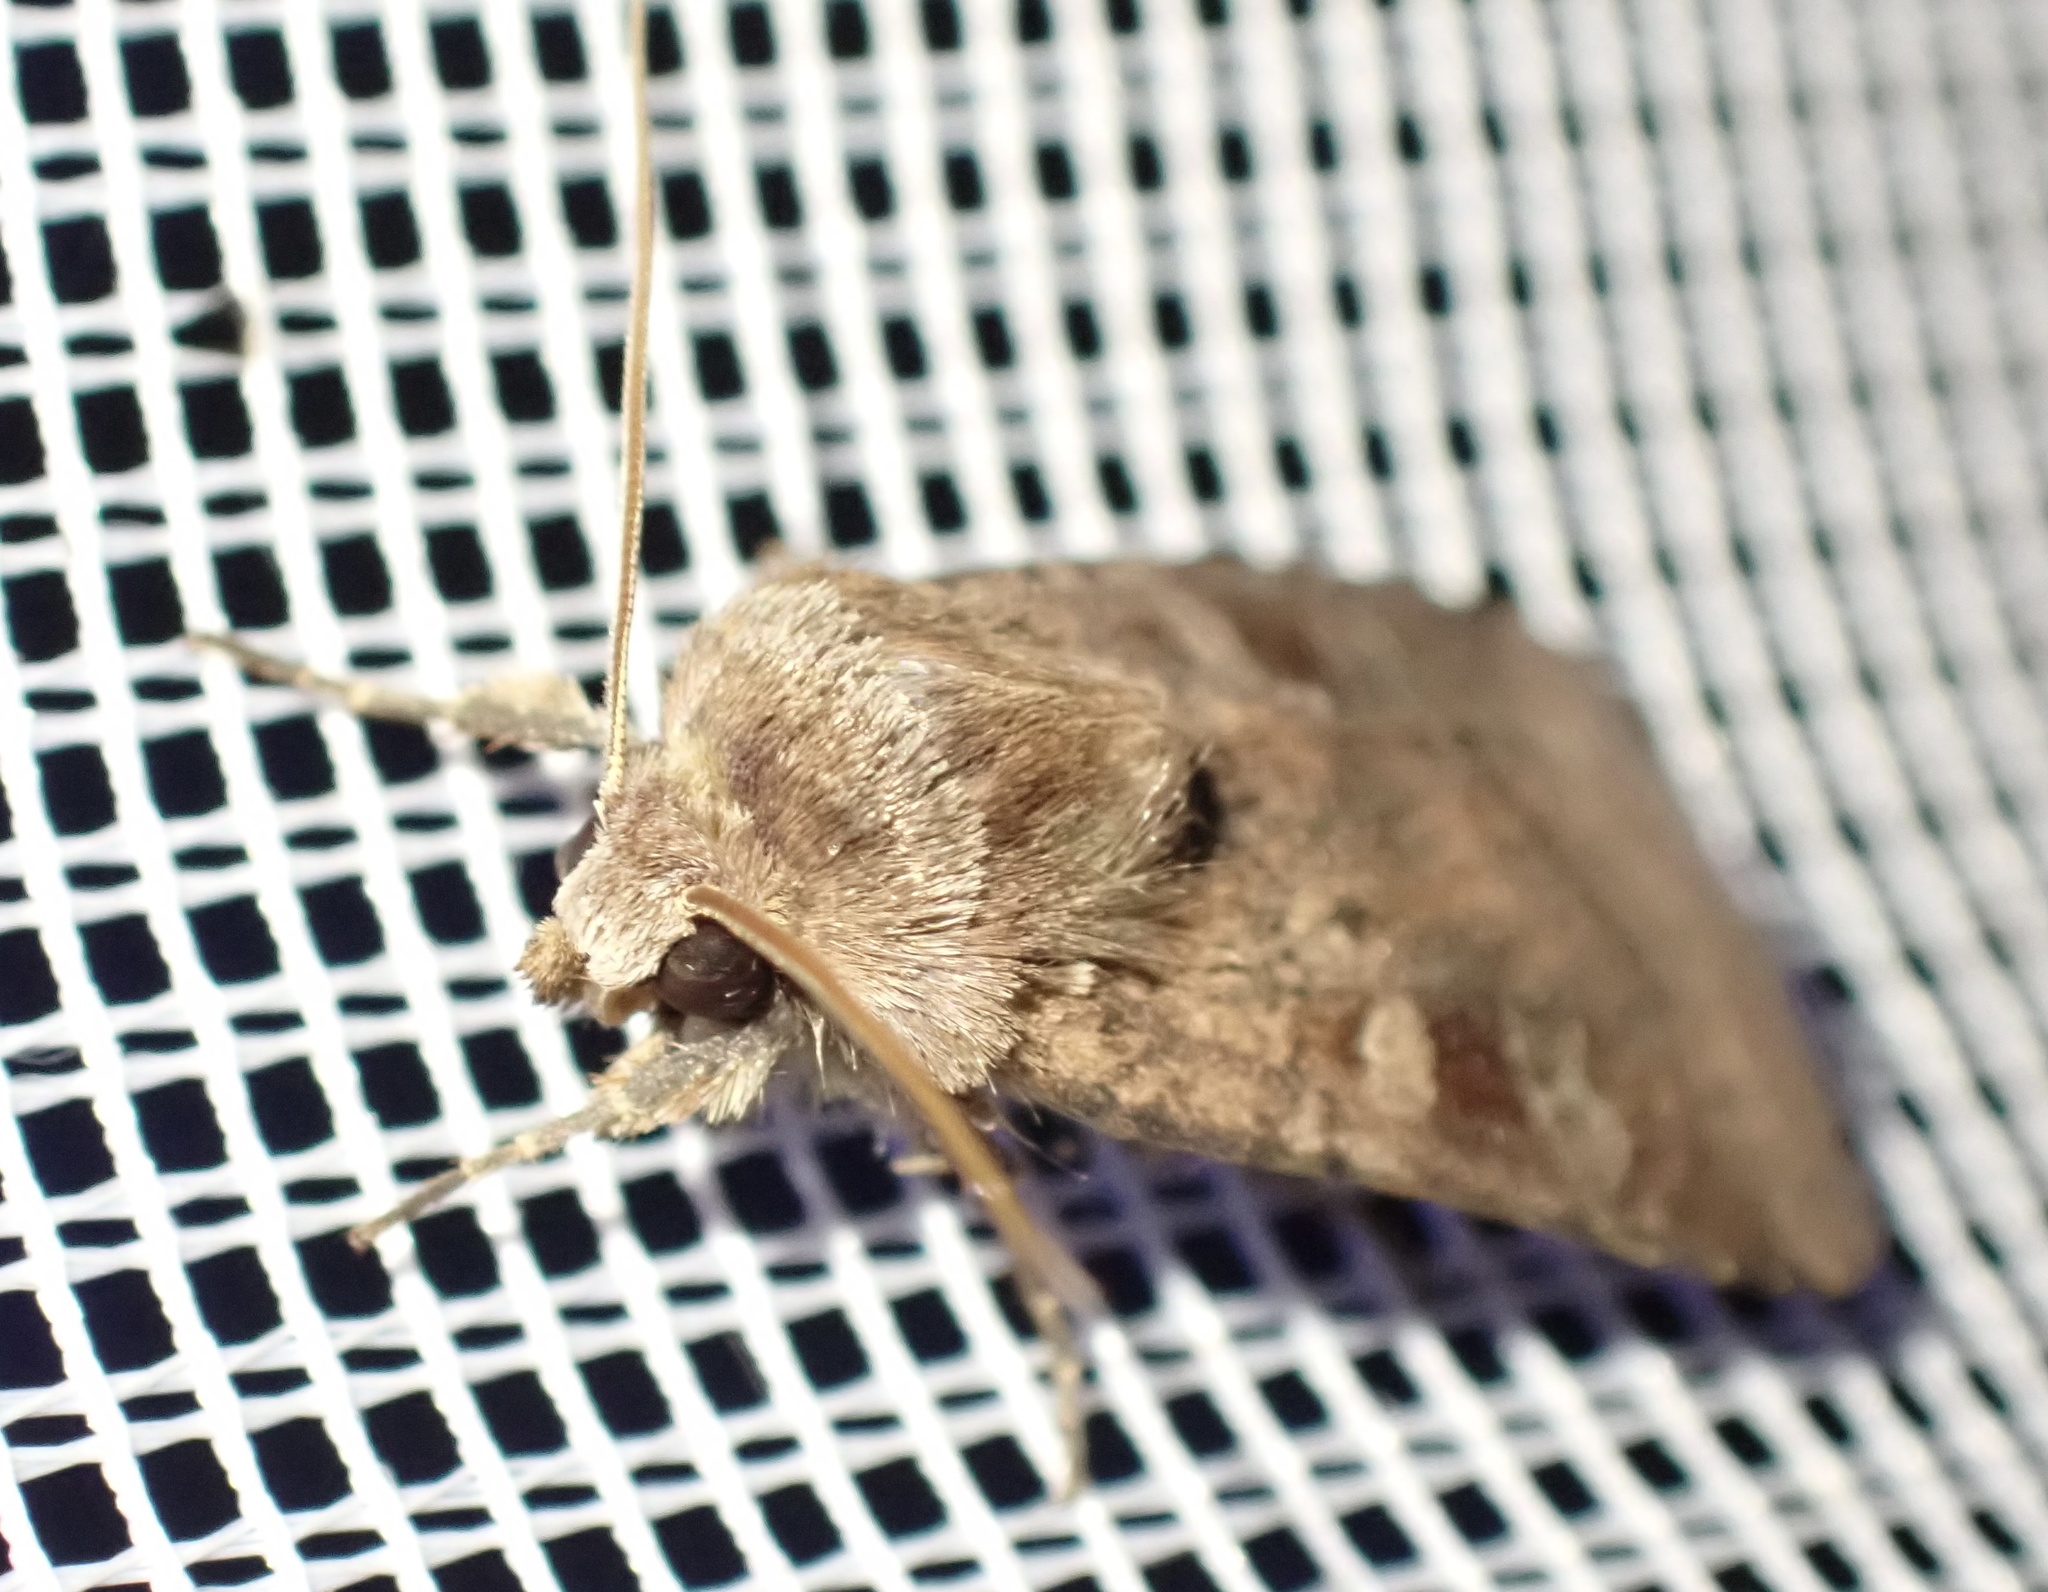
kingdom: Animalia
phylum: Arthropoda
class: Insecta
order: Lepidoptera
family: Noctuidae
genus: Diarsia
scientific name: Diarsia rubi
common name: Small square-spot
